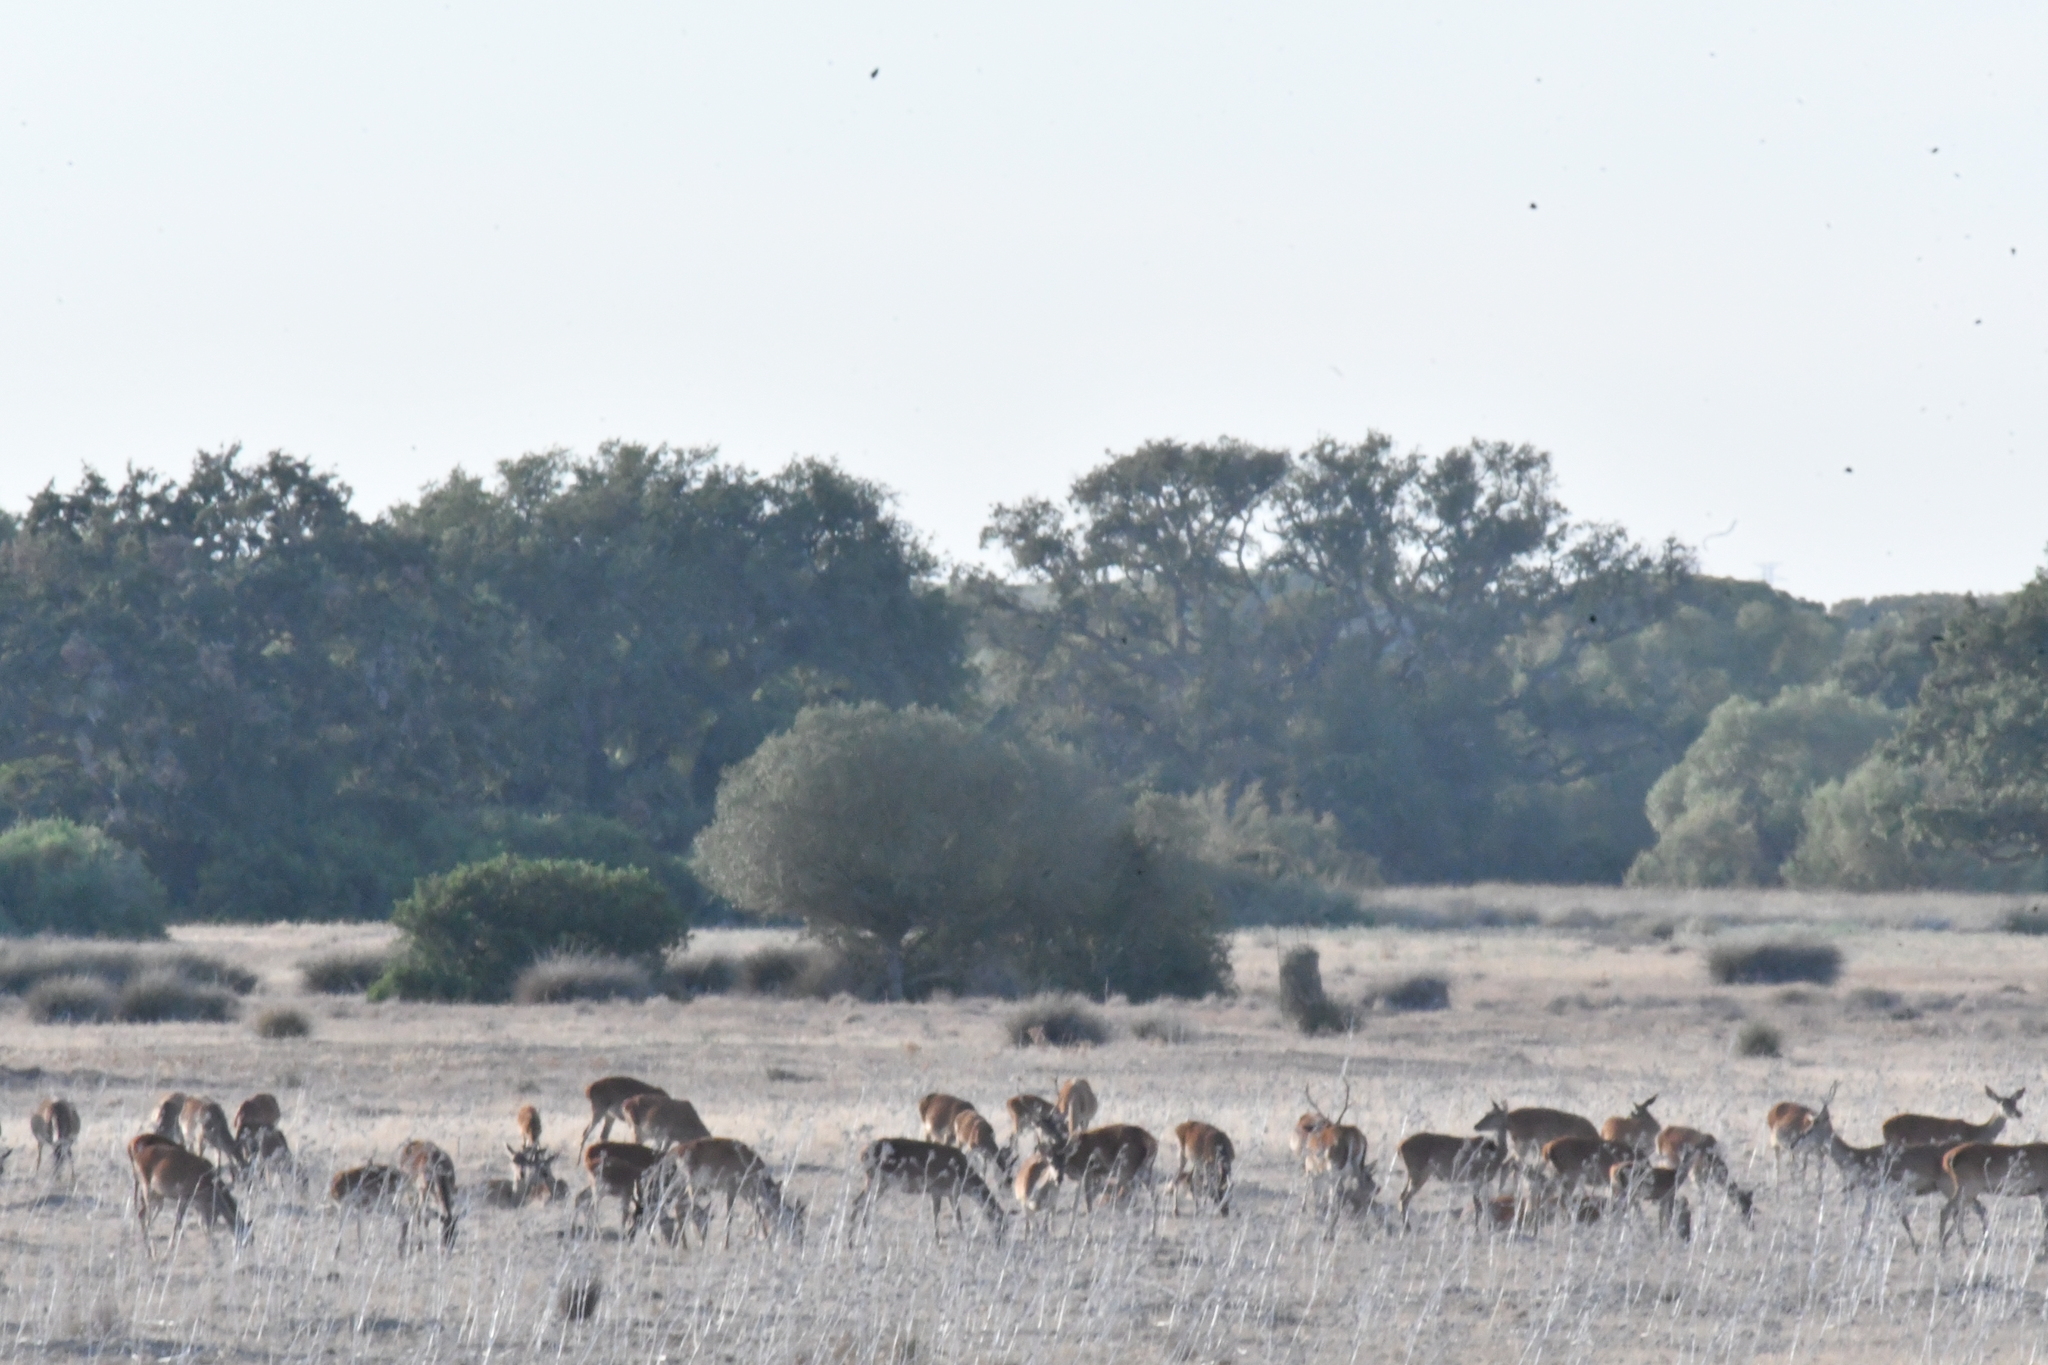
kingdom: Animalia
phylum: Chordata
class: Mammalia
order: Artiodactyla
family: Cervidae
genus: Cervus
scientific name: Cervus elaphus
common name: Red deer
